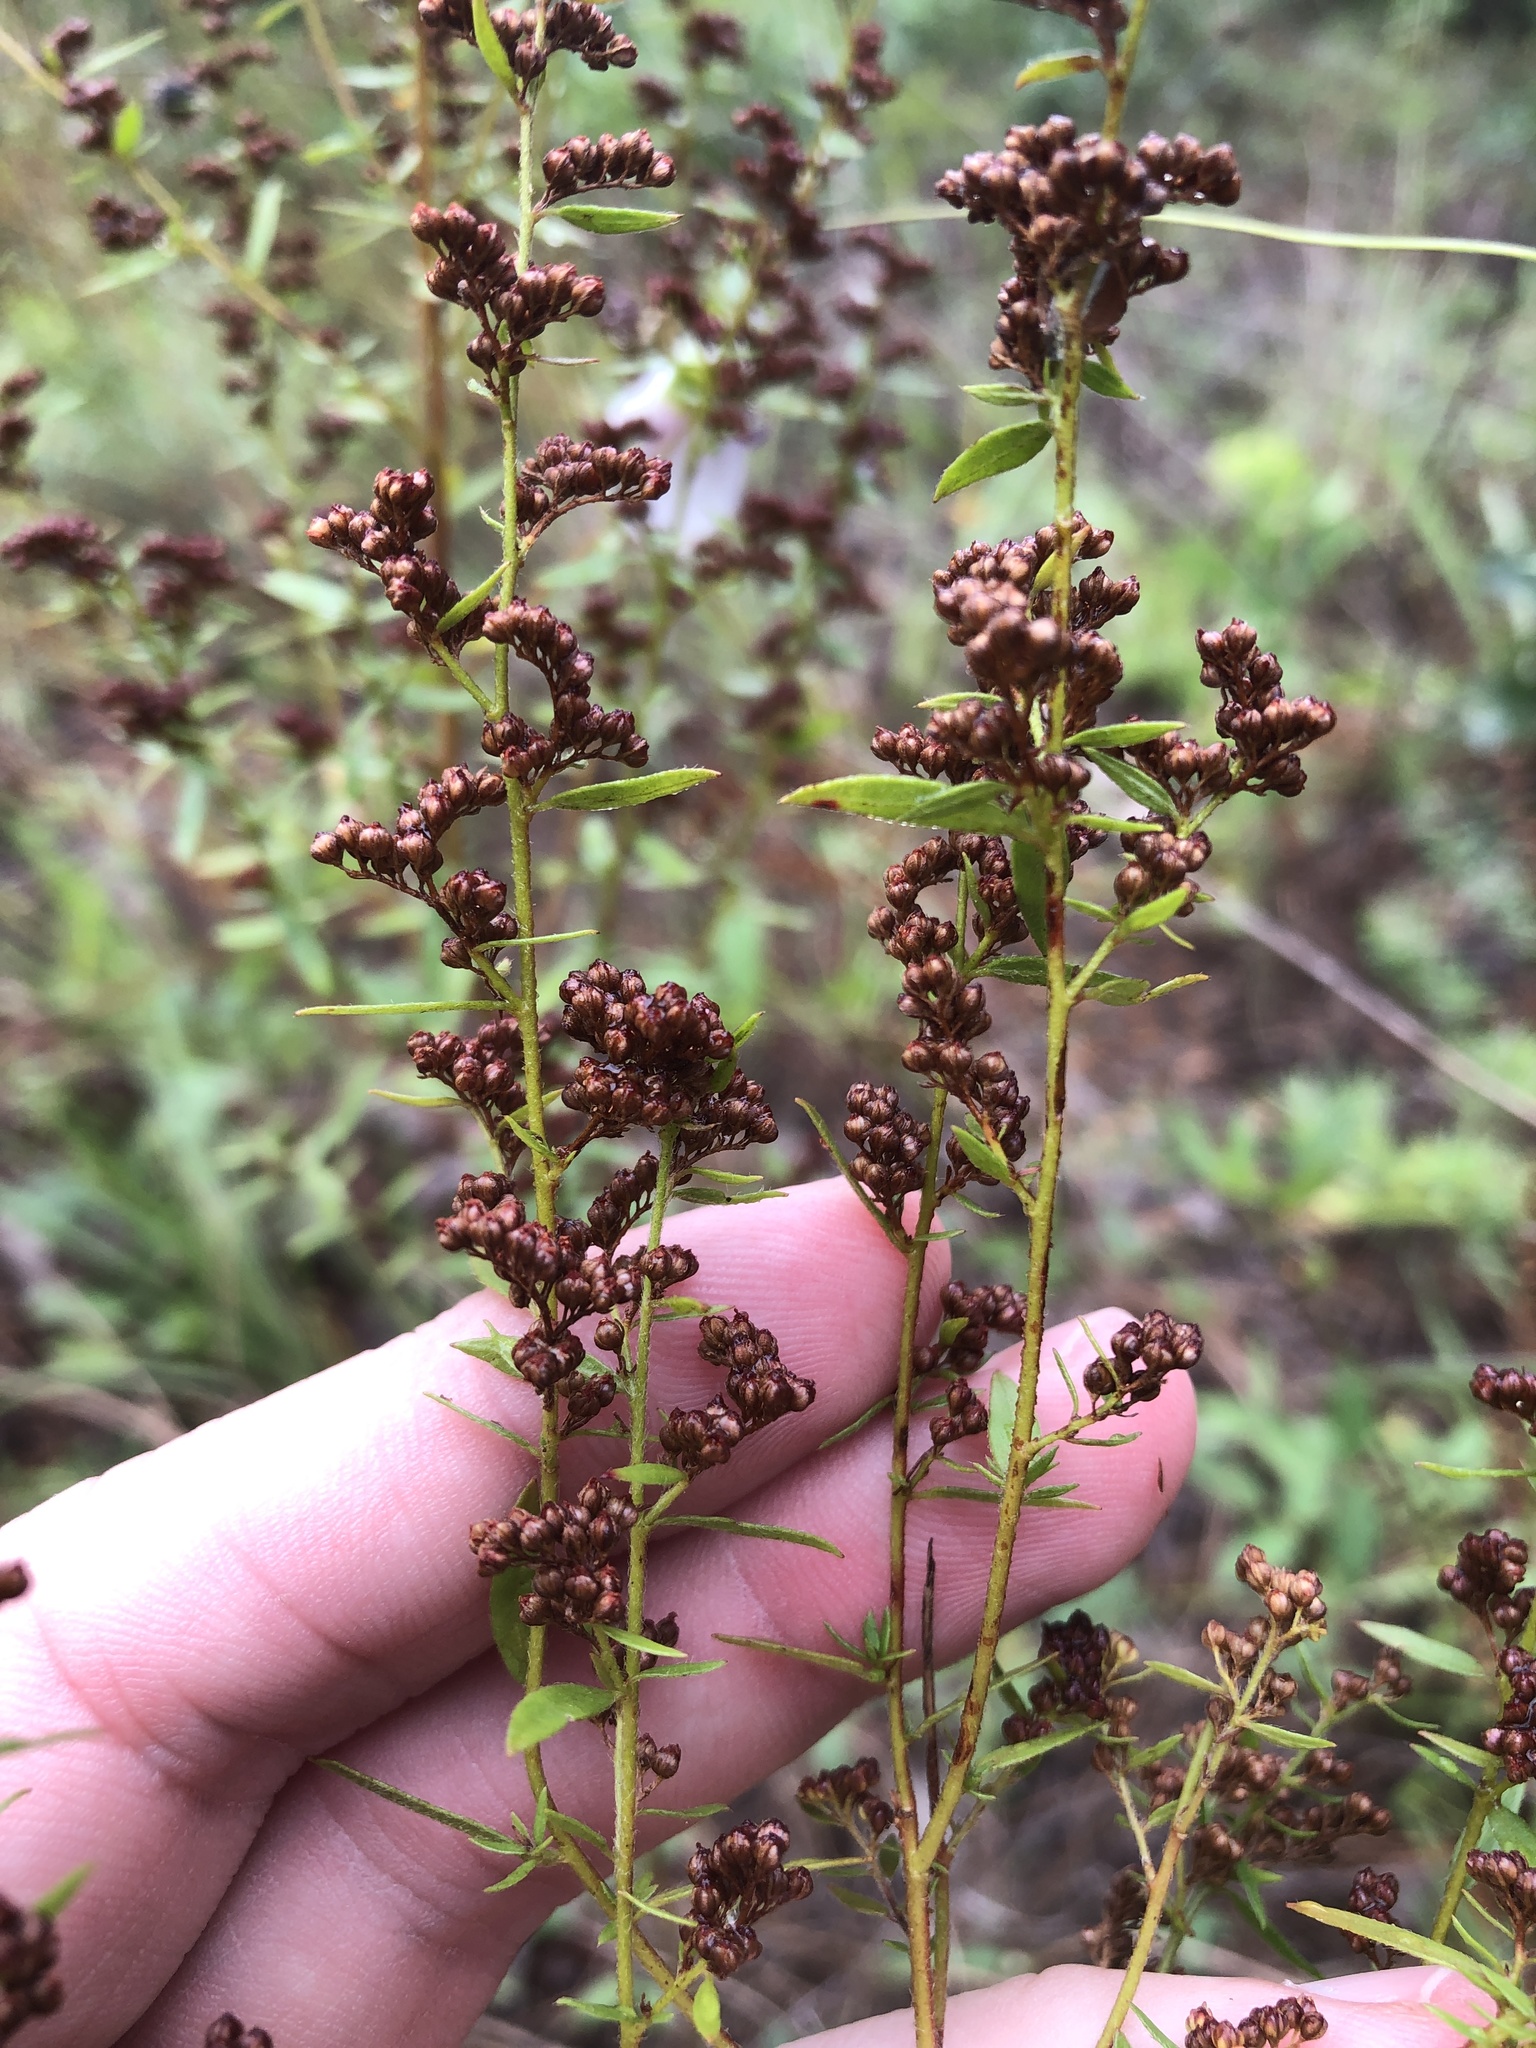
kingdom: Plantae
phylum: Tracheophyta
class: Magnoliopsida
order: Malvales
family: Cistaceae
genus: Lechea
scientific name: Lechea mucronata
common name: Hairy pinweed
